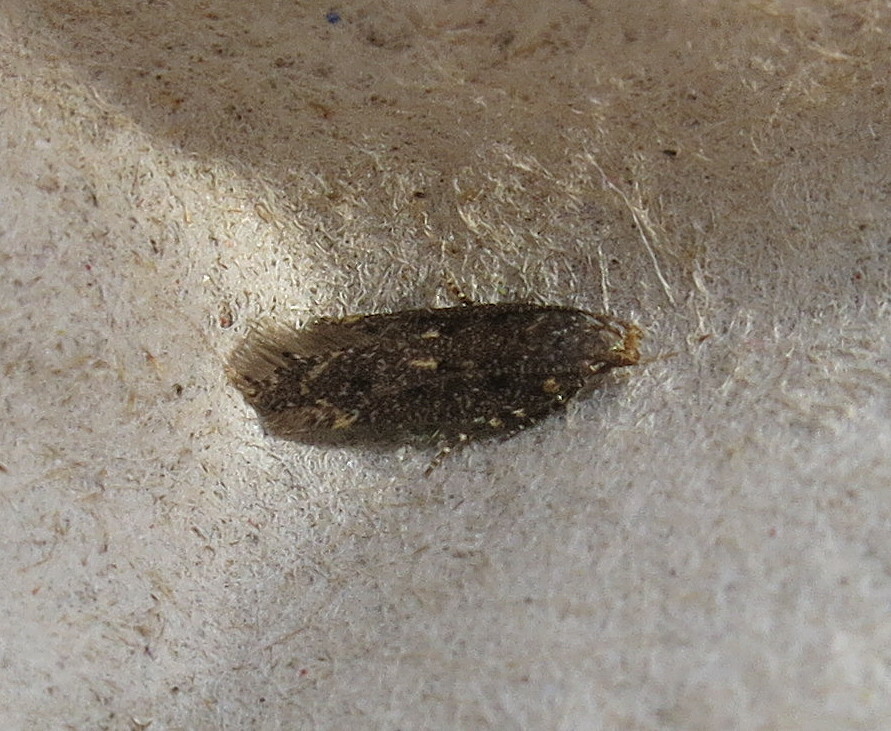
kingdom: Animalia
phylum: Arthropoda
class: Insecta
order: Lepidoptera
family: Gelechiidae
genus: Bryotropha
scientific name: Bryotropha affinis
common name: Dark groundling
